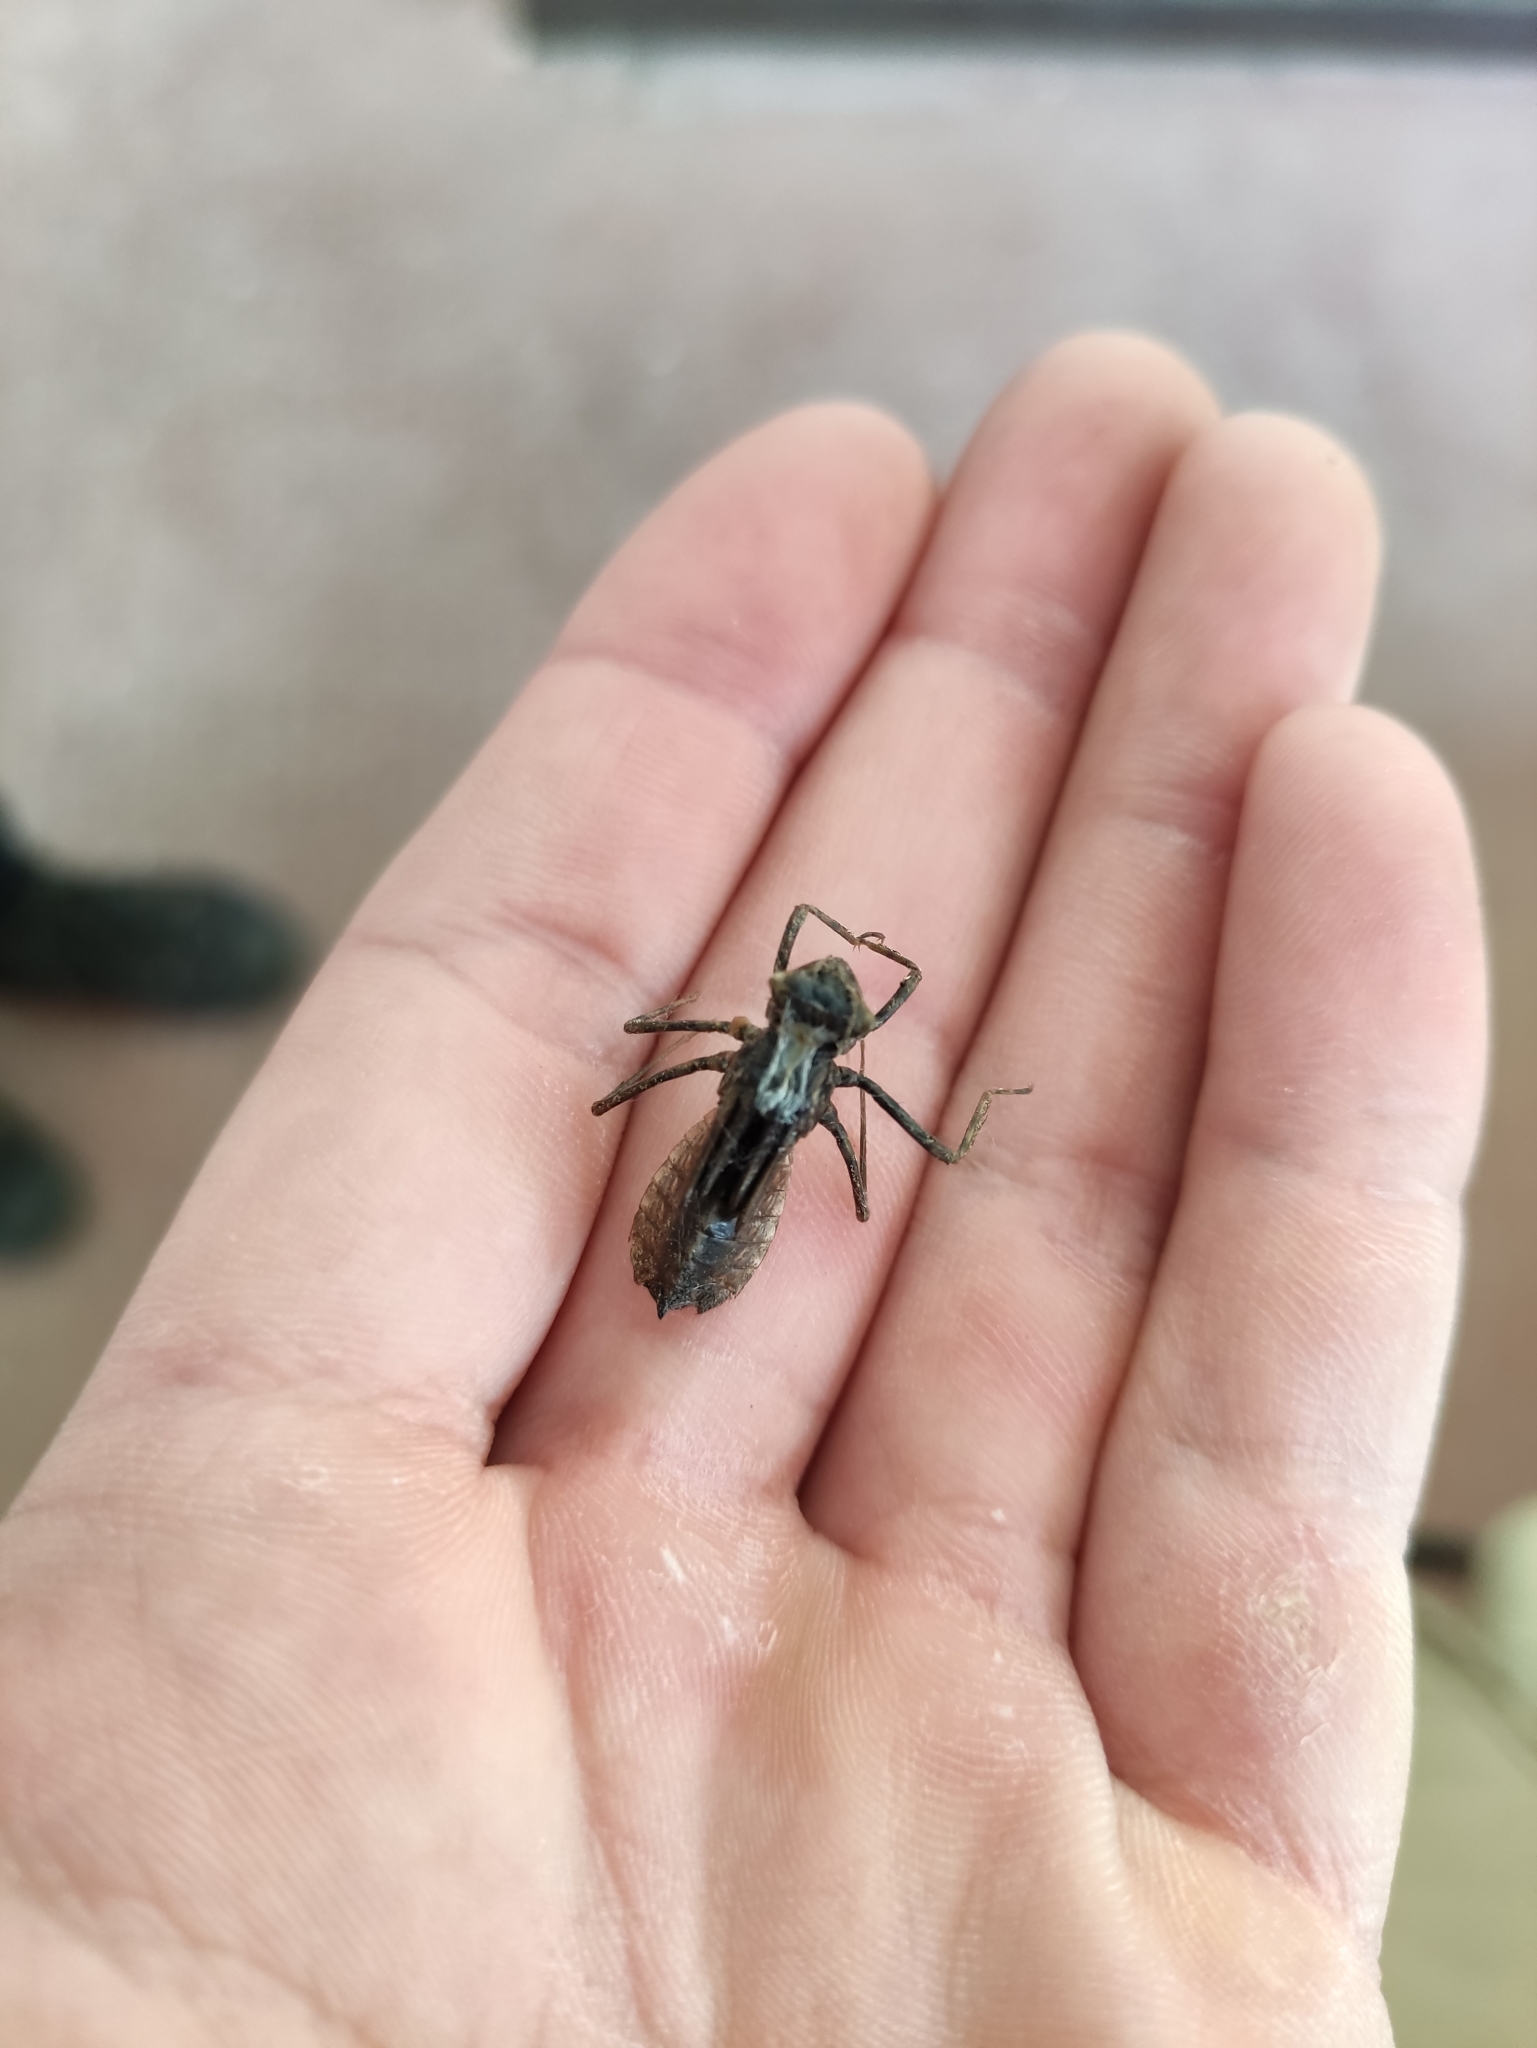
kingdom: Animalia
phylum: Arthropoda
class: Insecta
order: Odonata
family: Corduliidae
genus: Cordulia
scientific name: Cordulia aenea
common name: Downy emerald
